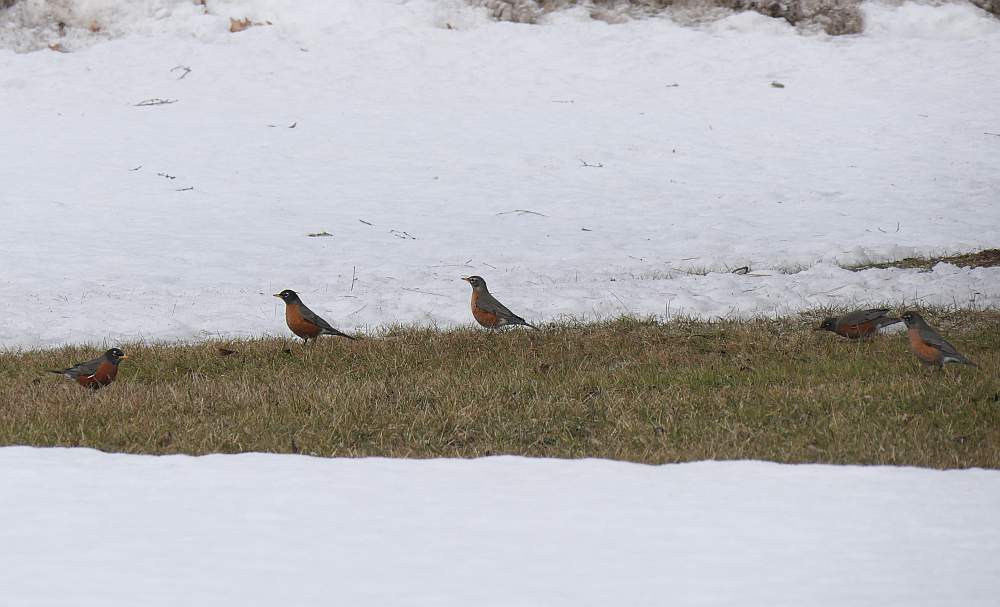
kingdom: Animalia
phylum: Chordata
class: Aves
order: Passeriformes
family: Turdidae
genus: Turdus
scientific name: Turdus migratorius
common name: American robin
